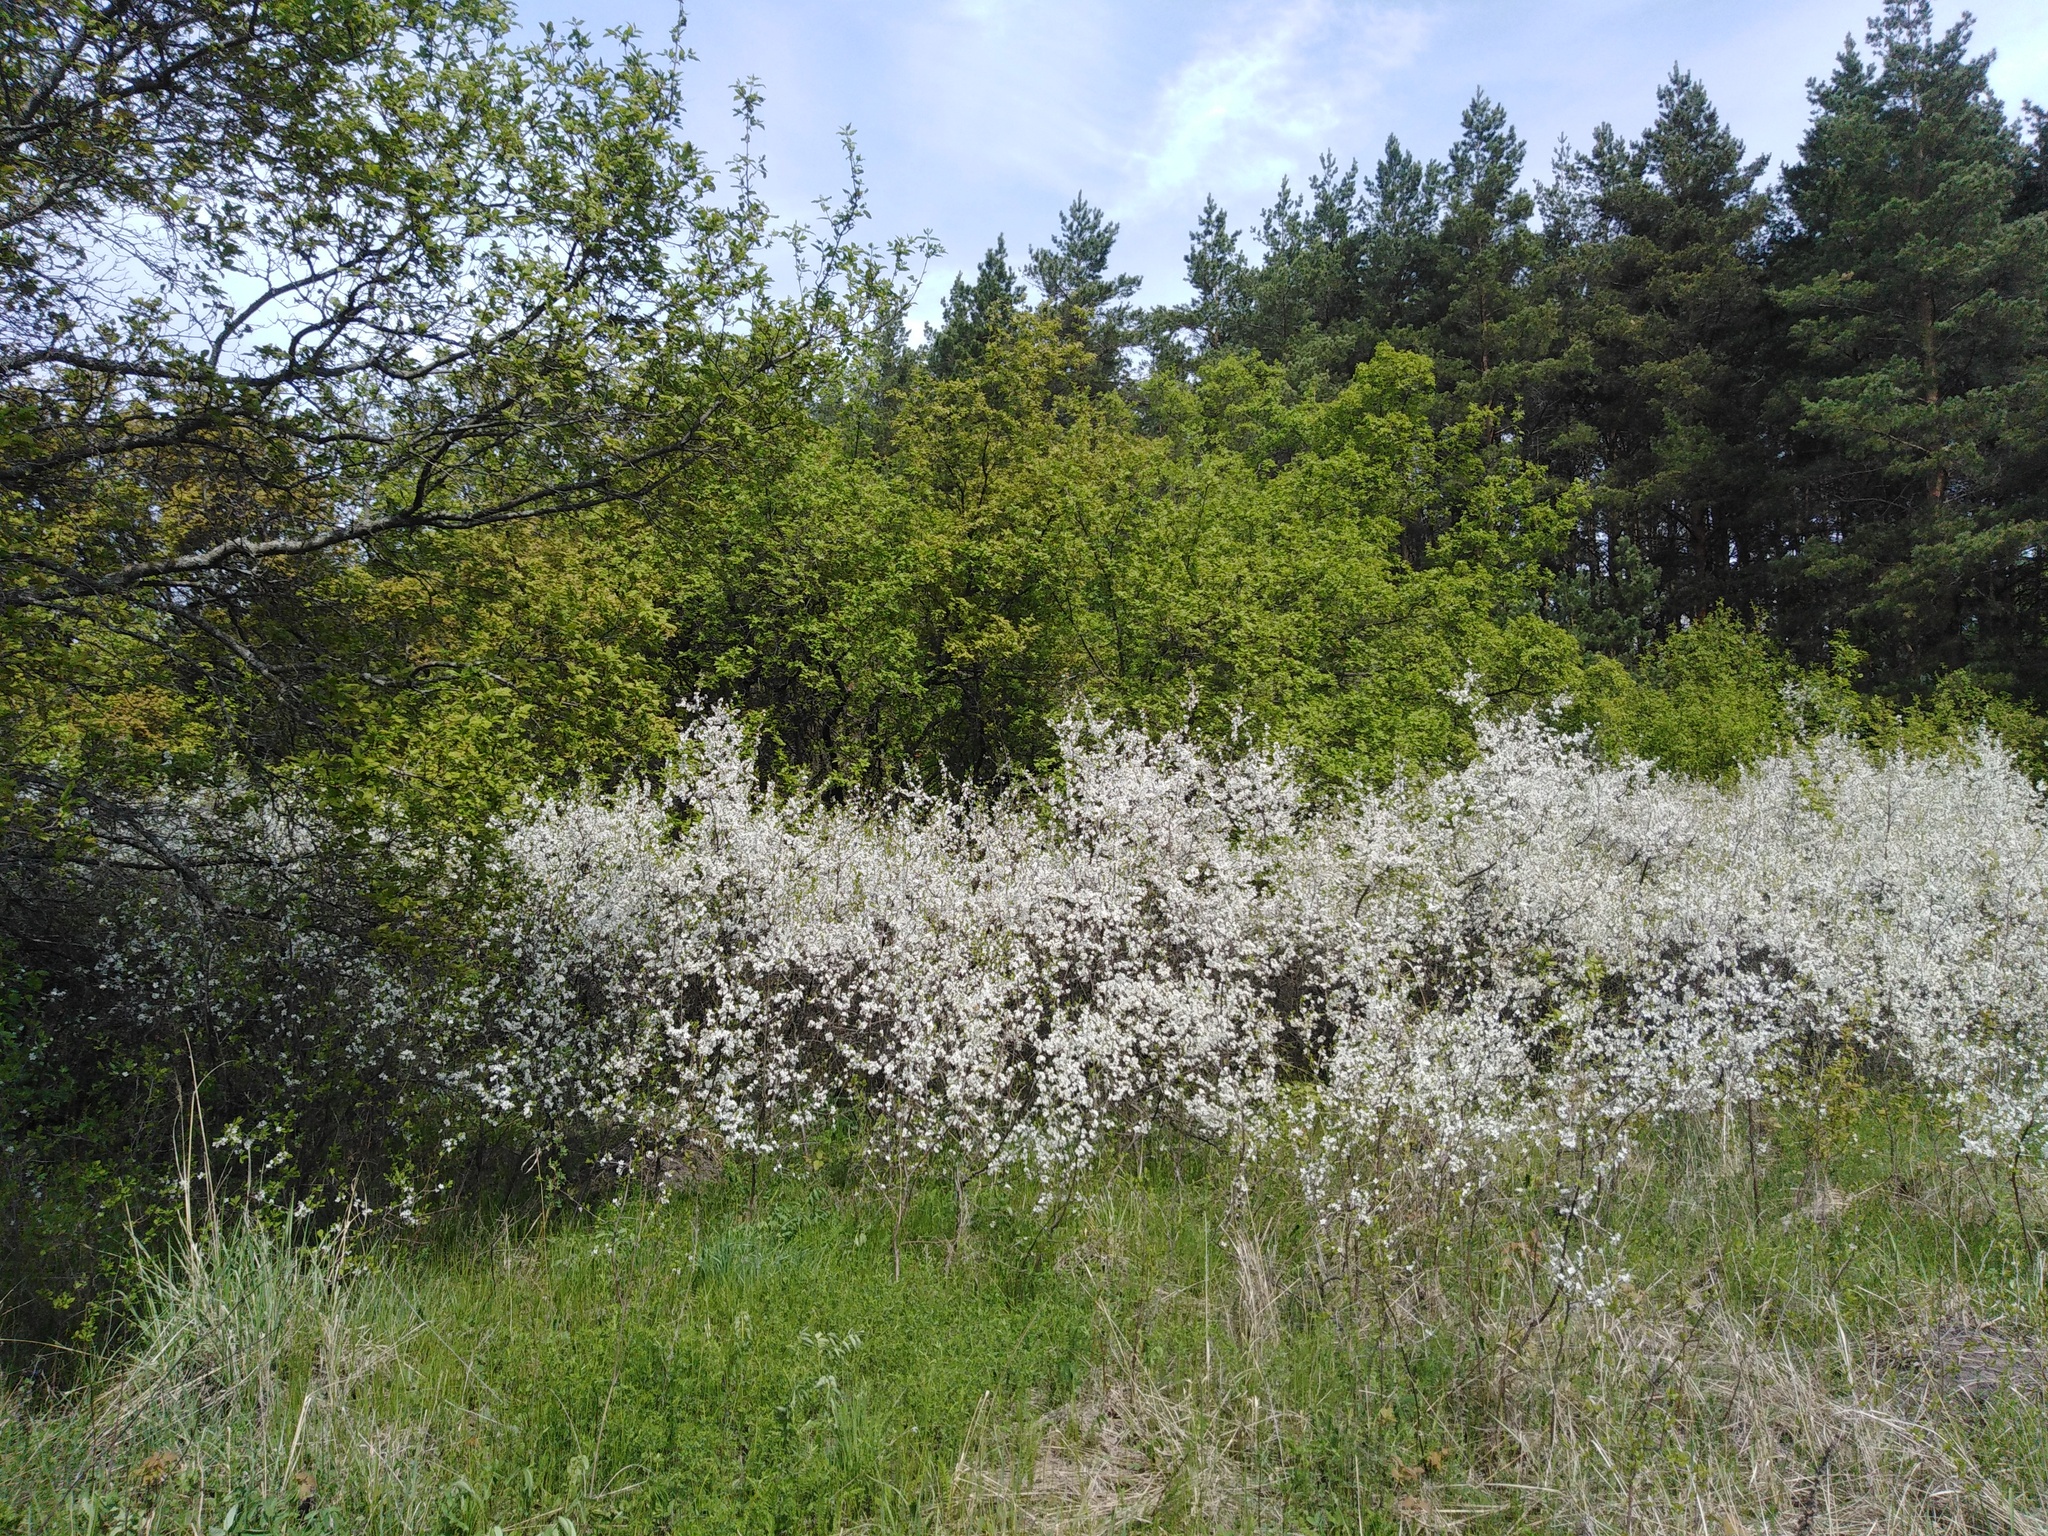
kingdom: Plantae
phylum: Tracheophyta
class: Magnoliopsida
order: Rosales
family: Rosaceae
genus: Prunus
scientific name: Prunus spinosa
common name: Blackthorn
